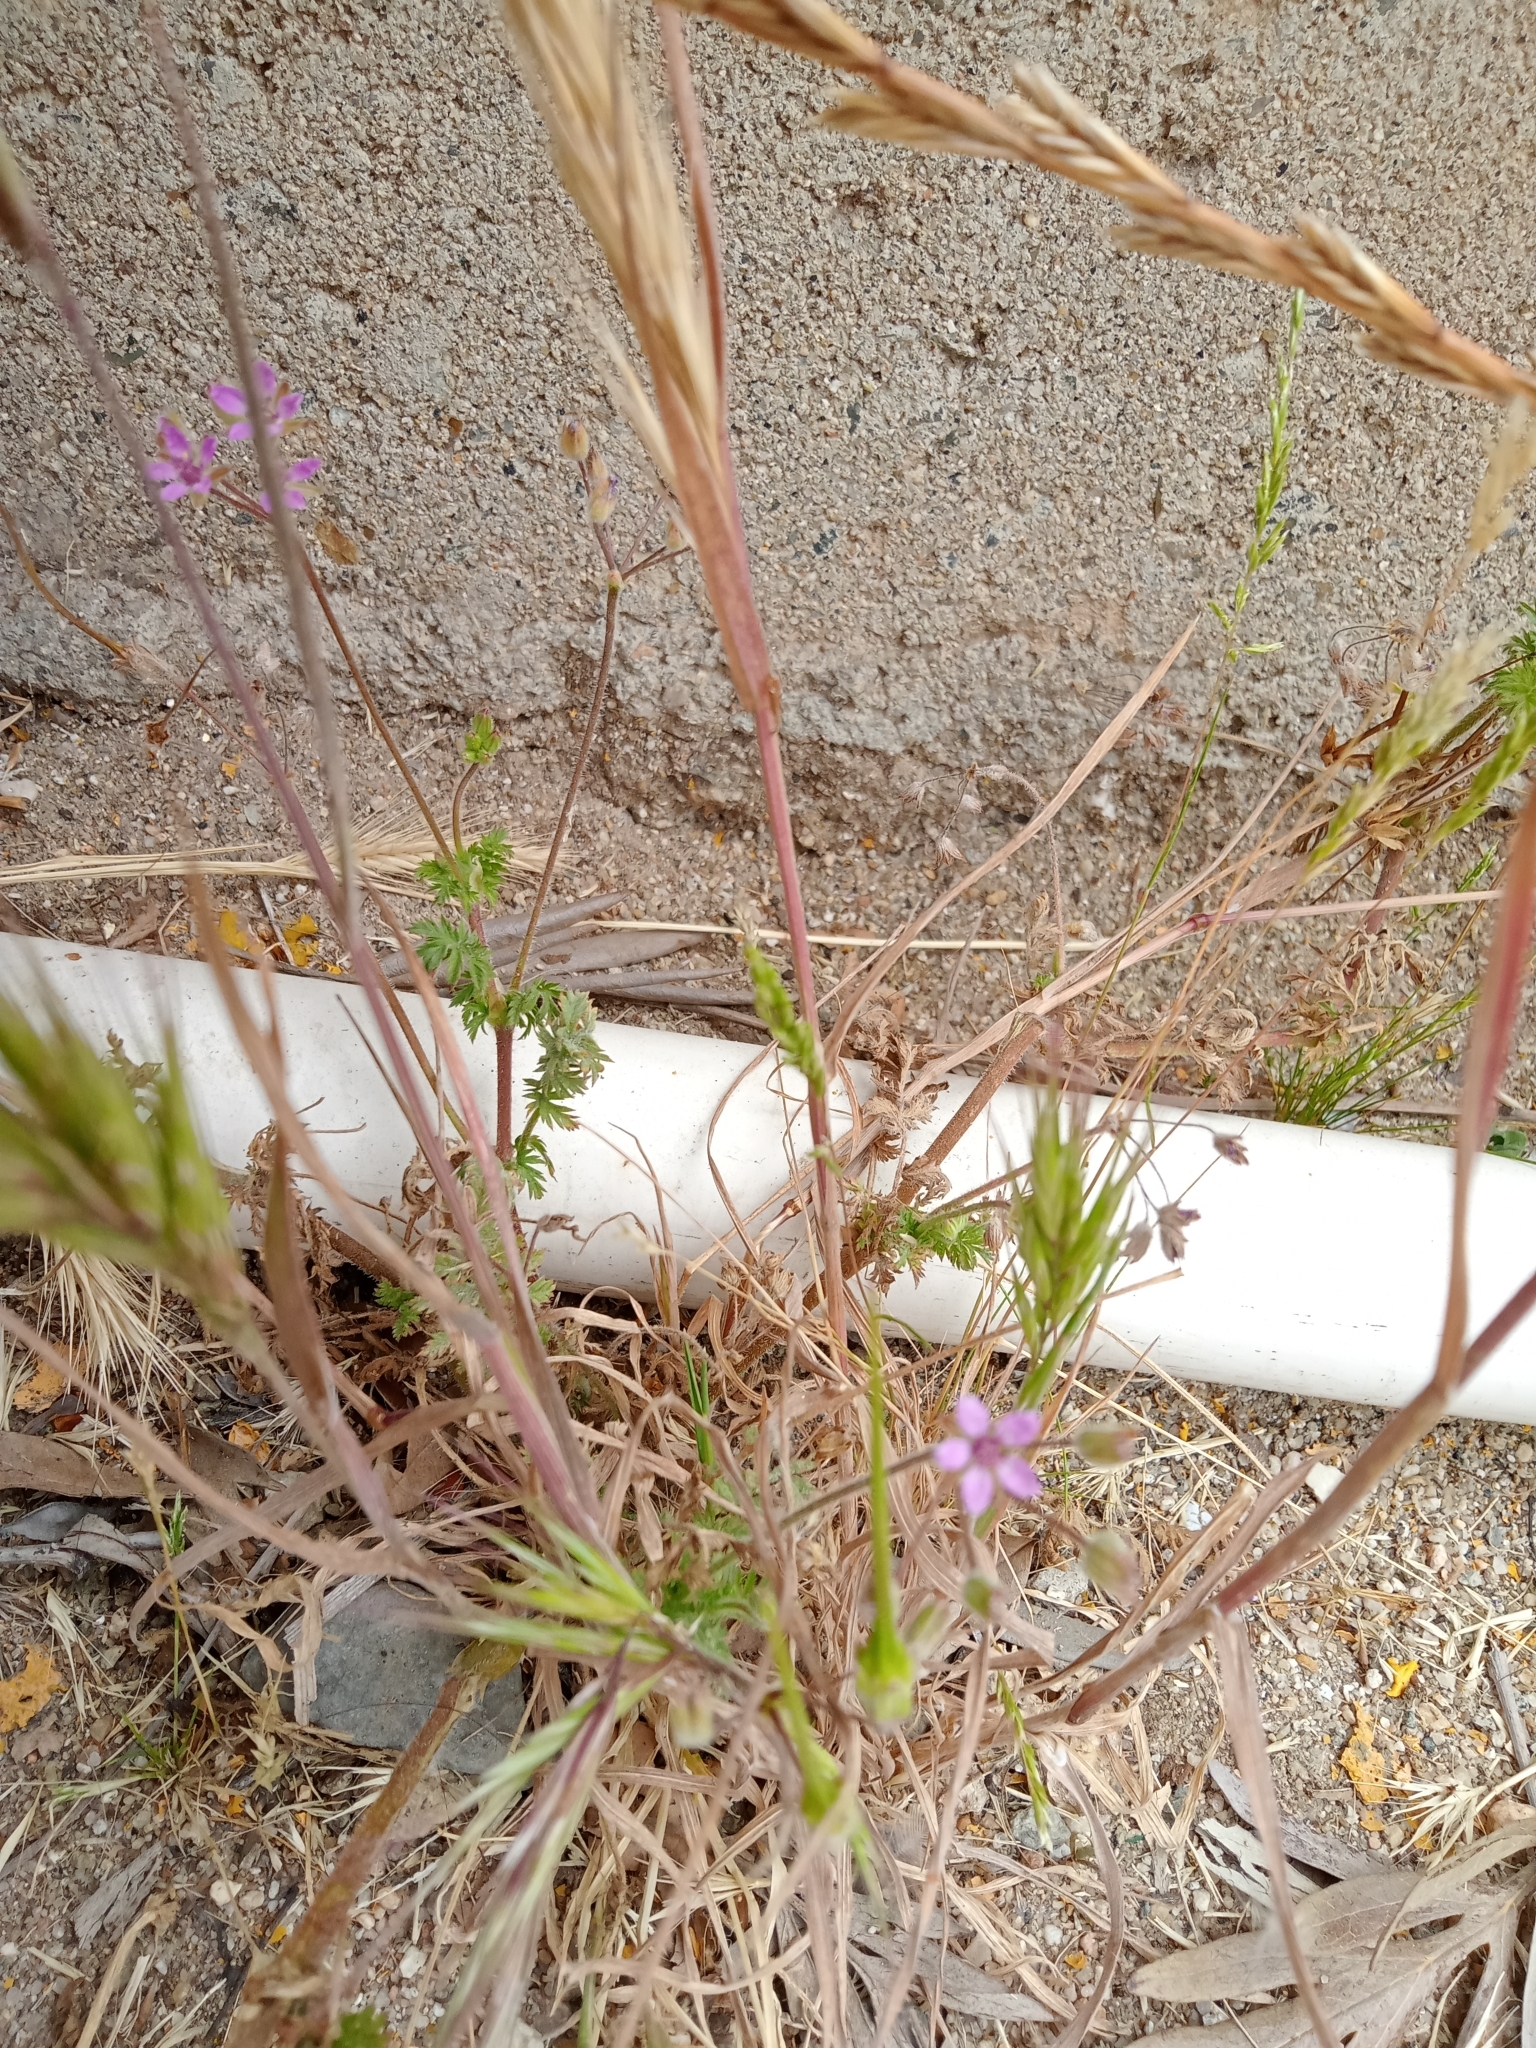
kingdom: Plantae
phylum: Tracheophyta
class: Magnoliopsida
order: Geraniales
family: Geraniaceae
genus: Erodium
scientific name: Erodium cicutarium
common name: Common stork's-bill
